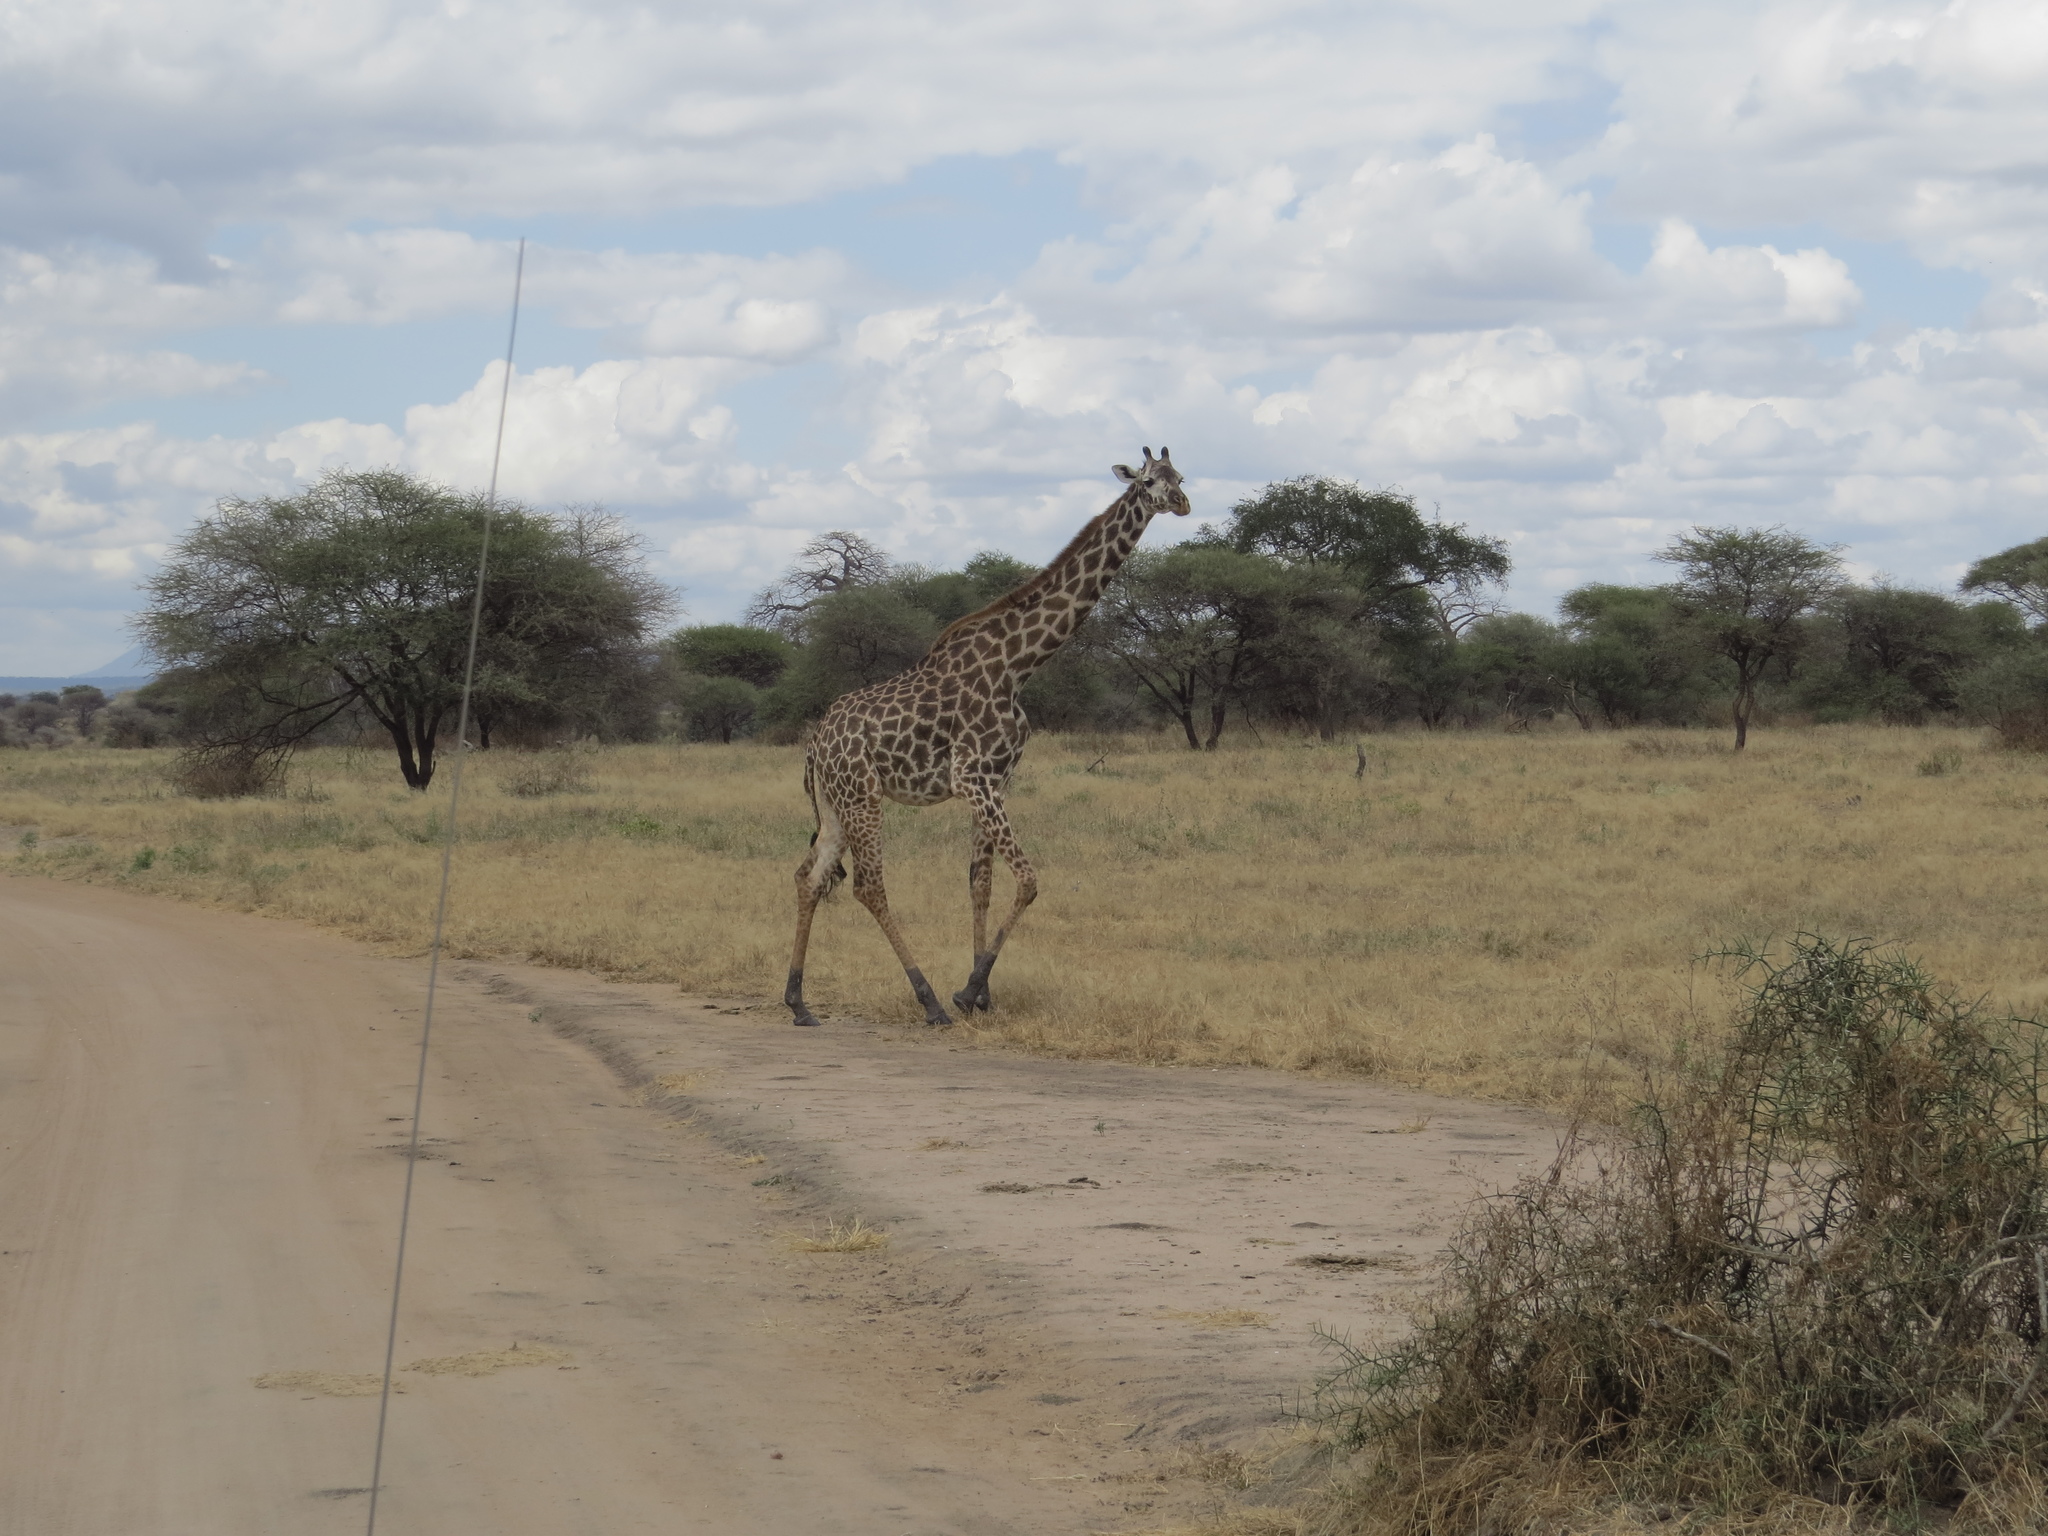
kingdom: Animalia
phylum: Chordata
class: Mammalia
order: Artiodactyla
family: Giraffidae
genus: Giraffa
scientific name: Giraffa tippelskirchi
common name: Masai giraffe
